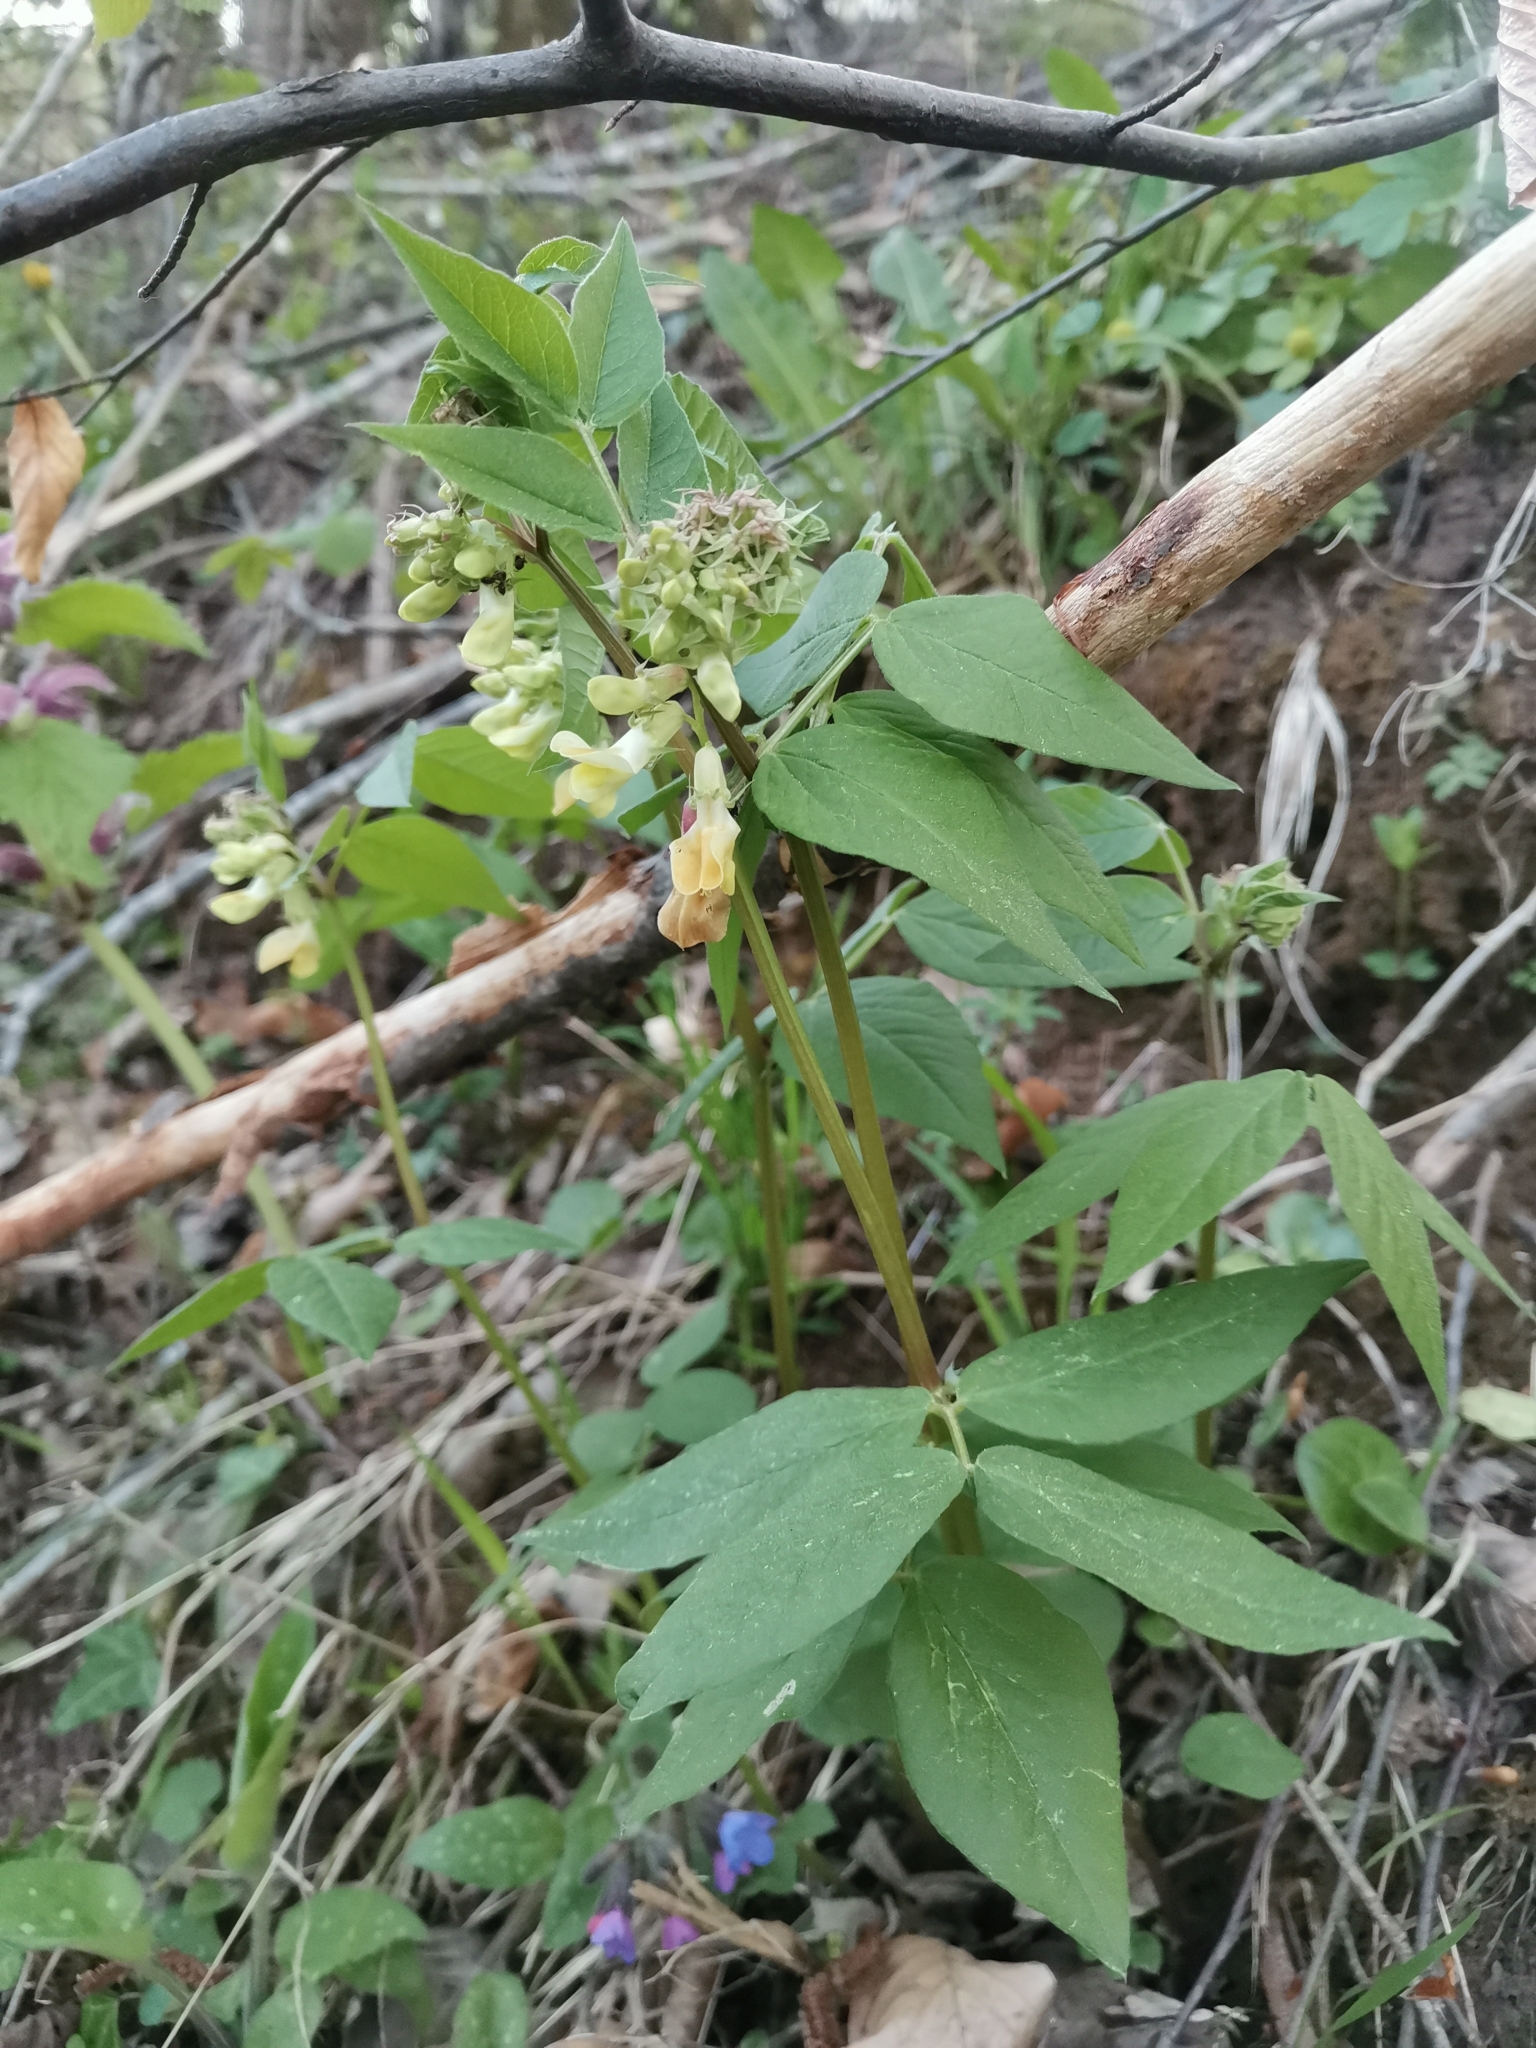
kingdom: Plantae
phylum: Tracheophyta
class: Magnoliopsida
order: Fabales
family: Fabaceae
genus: Vicia
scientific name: Vicia oroboides
